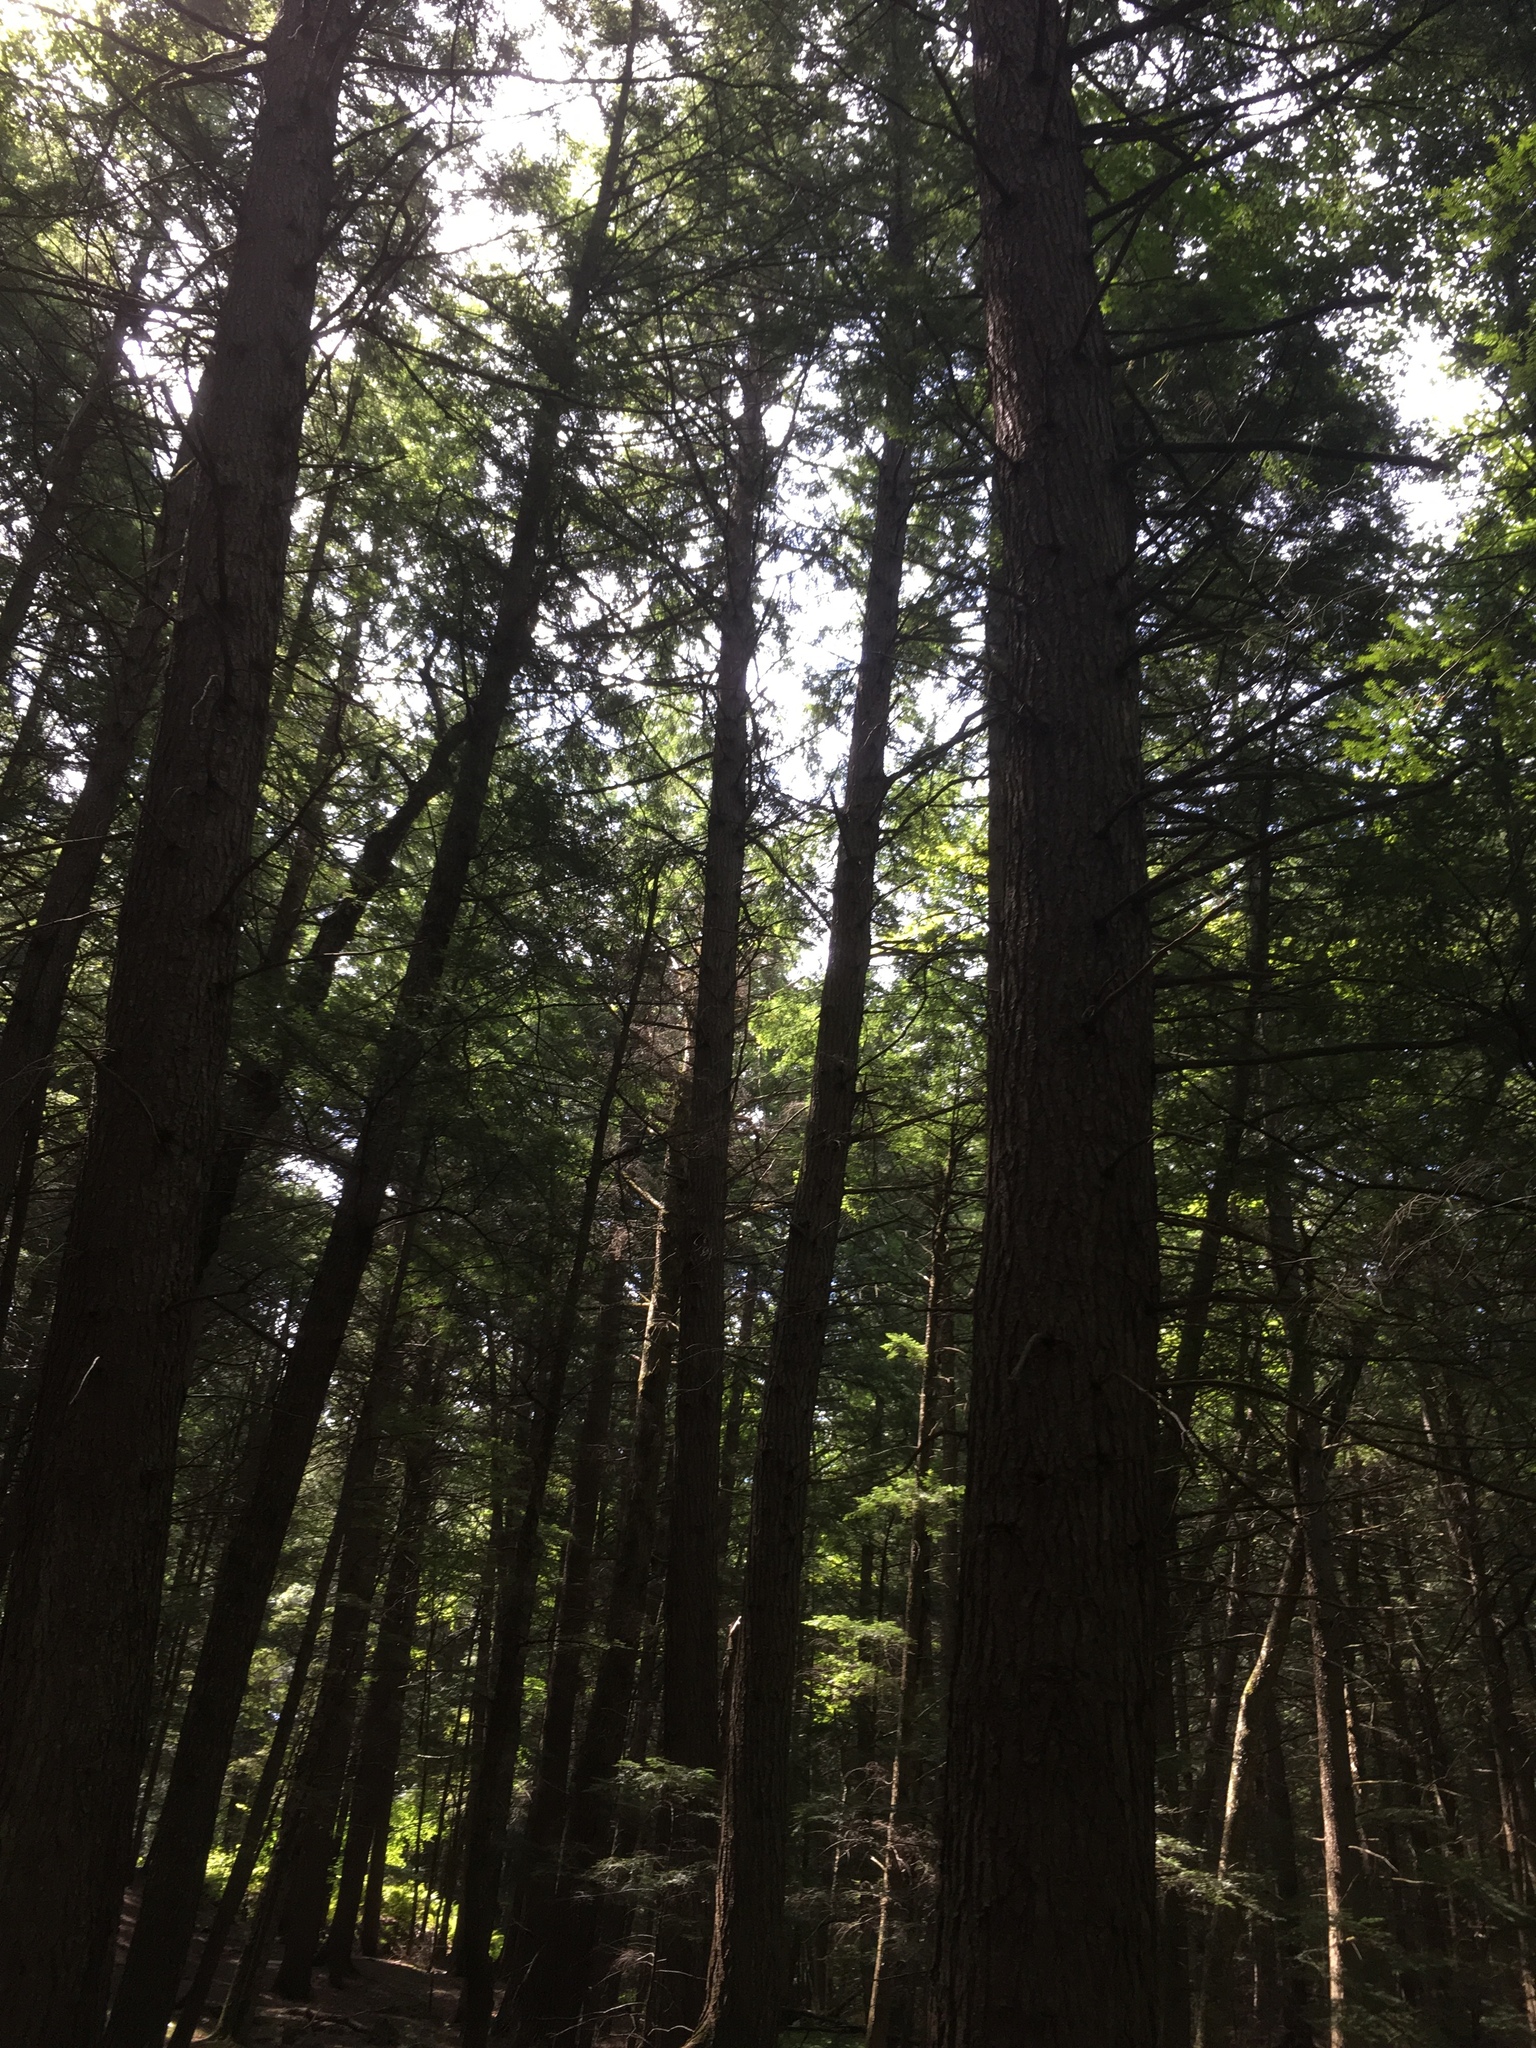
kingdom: Plantae
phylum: Tracheophyta
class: Pinopsida
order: Pinales
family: Pinaceae
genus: Tsuga
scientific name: Tsuga canadensis
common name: Eastern hemlock
